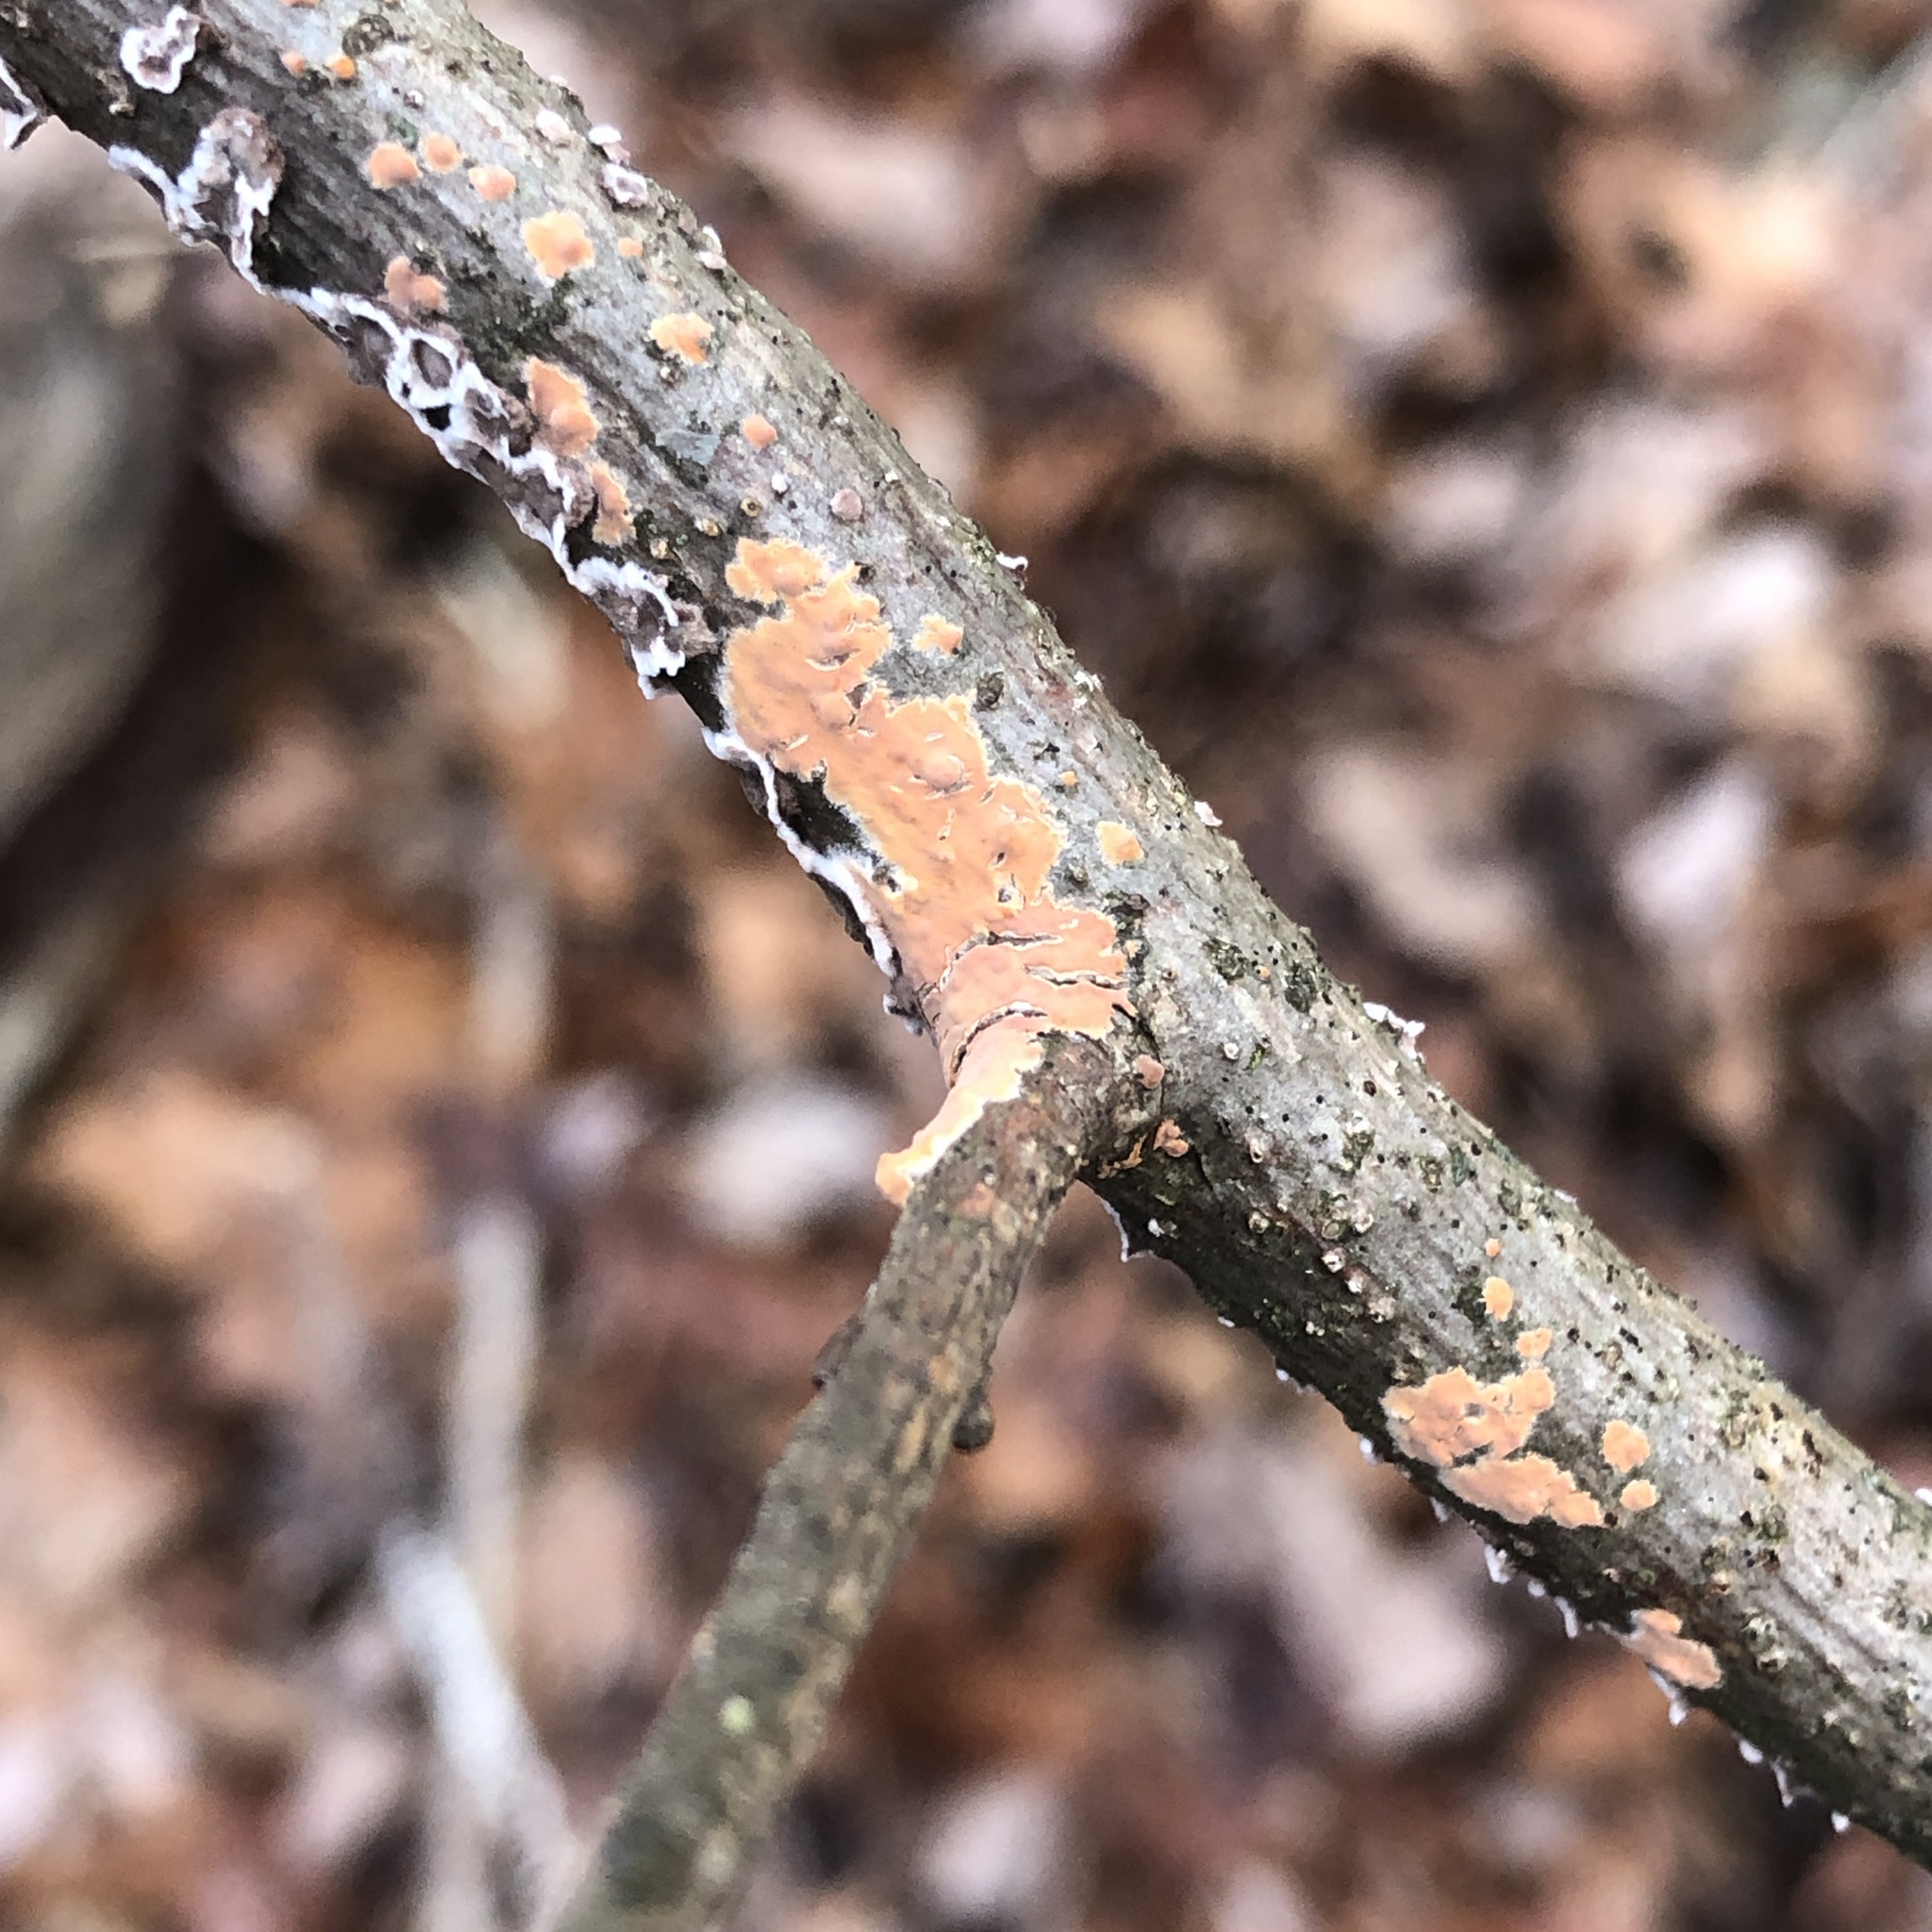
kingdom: Fungi
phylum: Basidiomycota
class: Agaricomycetes
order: Russulales
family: Peniophoraceae
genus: Peniophora
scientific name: Peniophora incarnata
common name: Rosy crust
